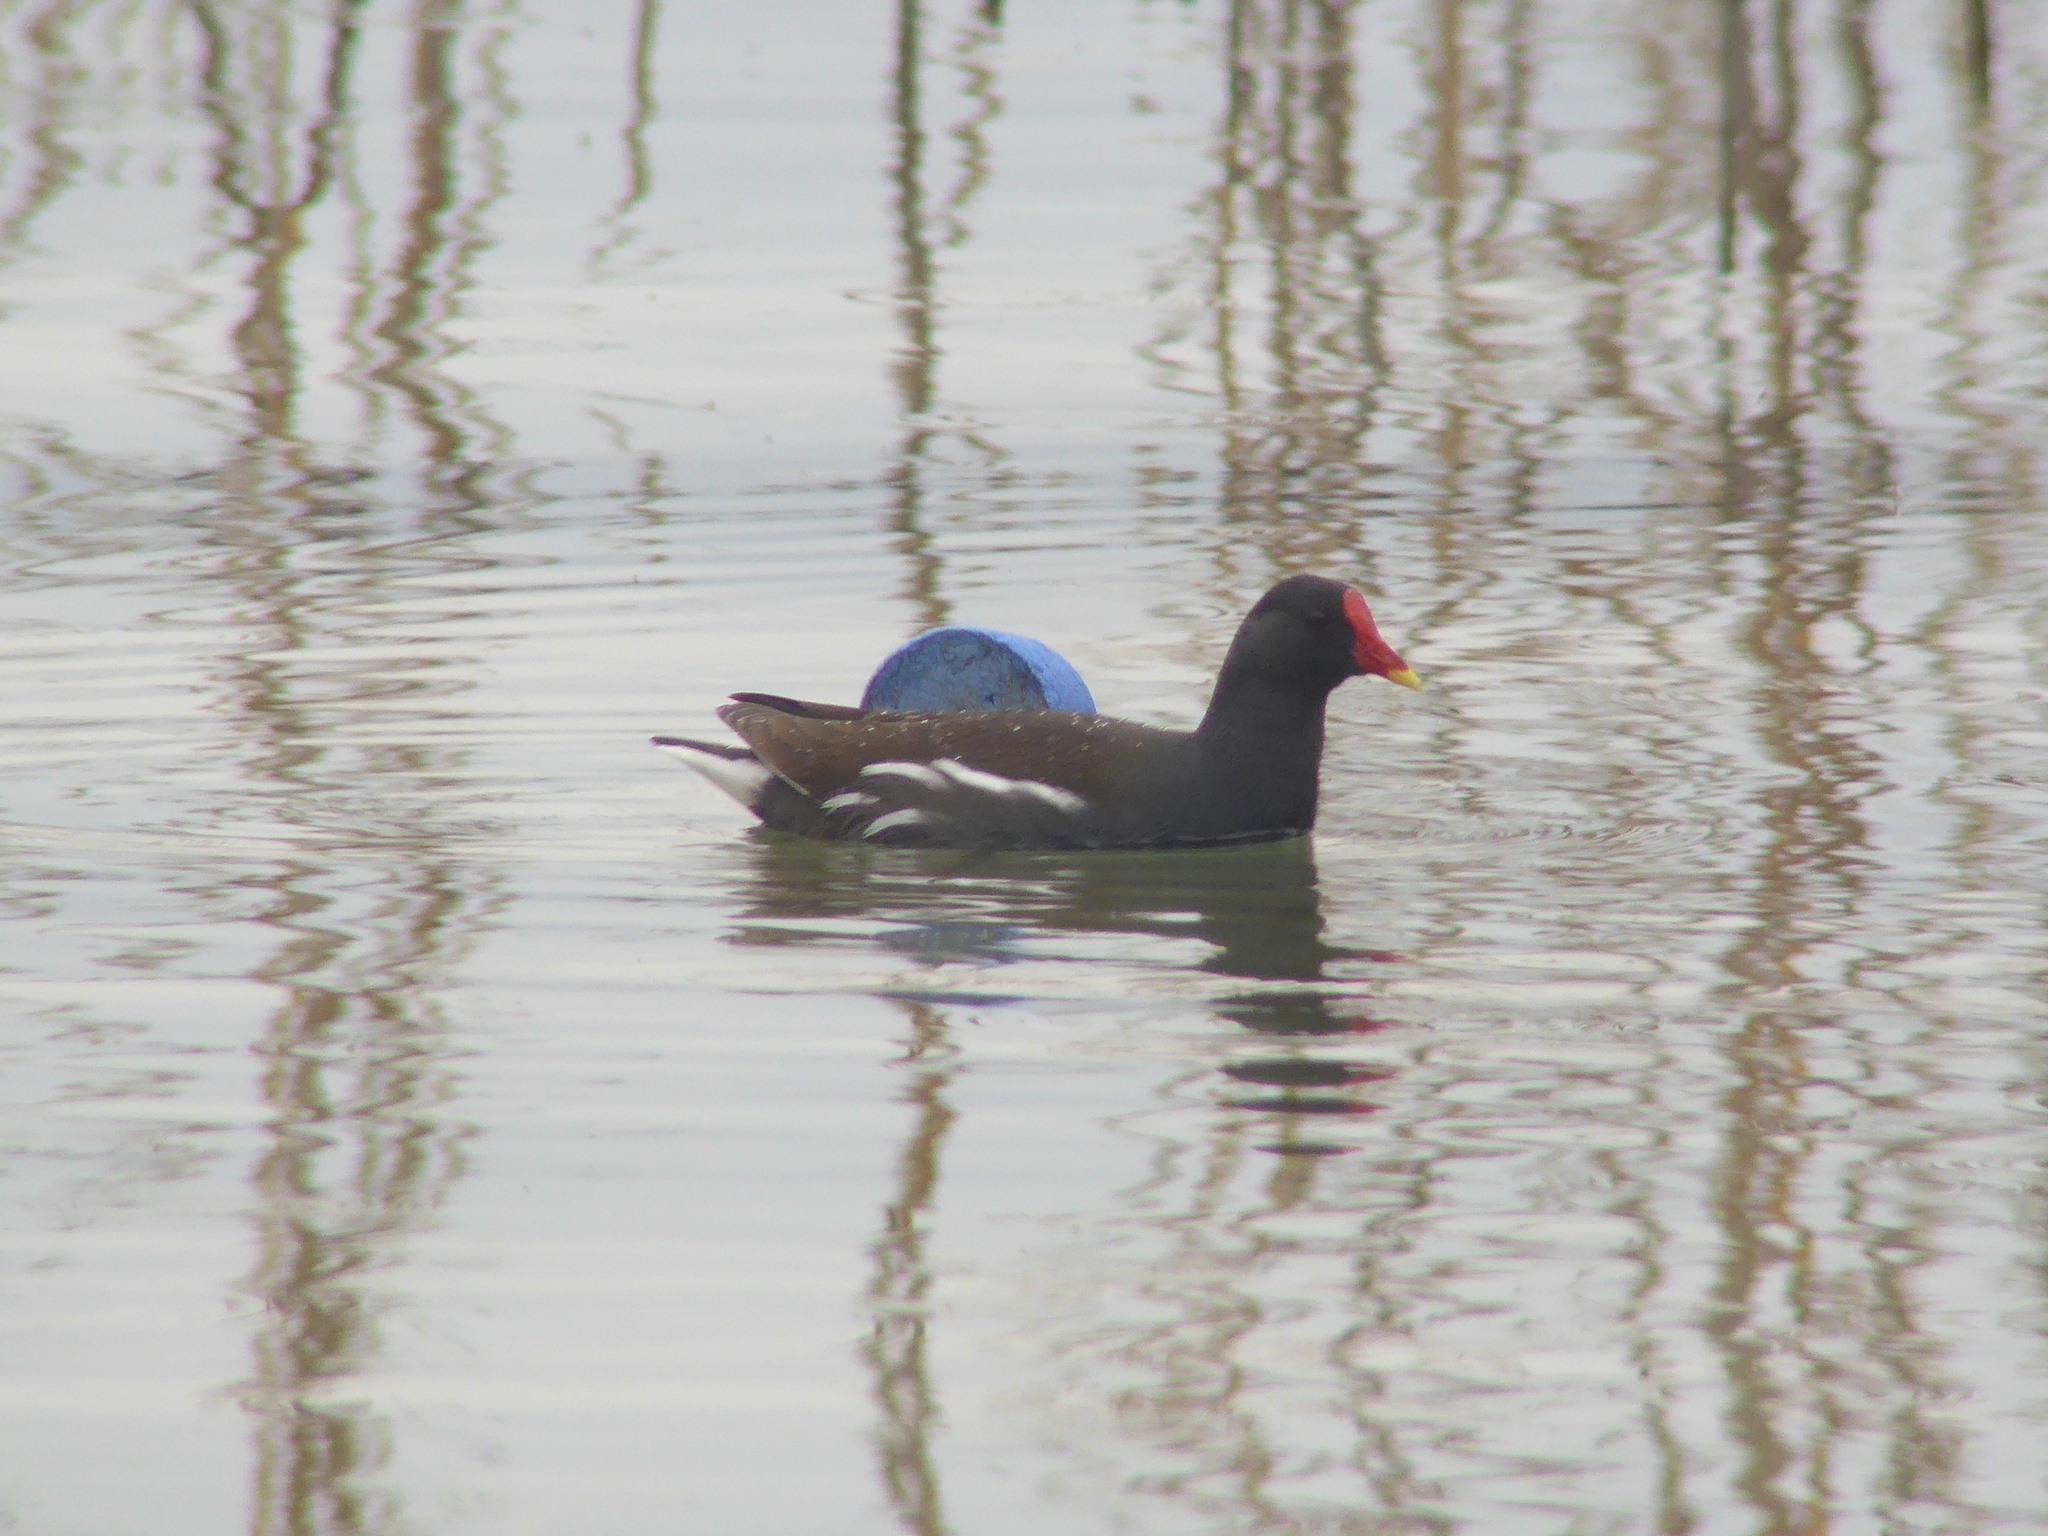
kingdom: Animalia
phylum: Chordata
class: Aves
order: Gruiformes
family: Rallidae
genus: Gallinula
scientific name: Gallinula chloropus
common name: Common moorhen
